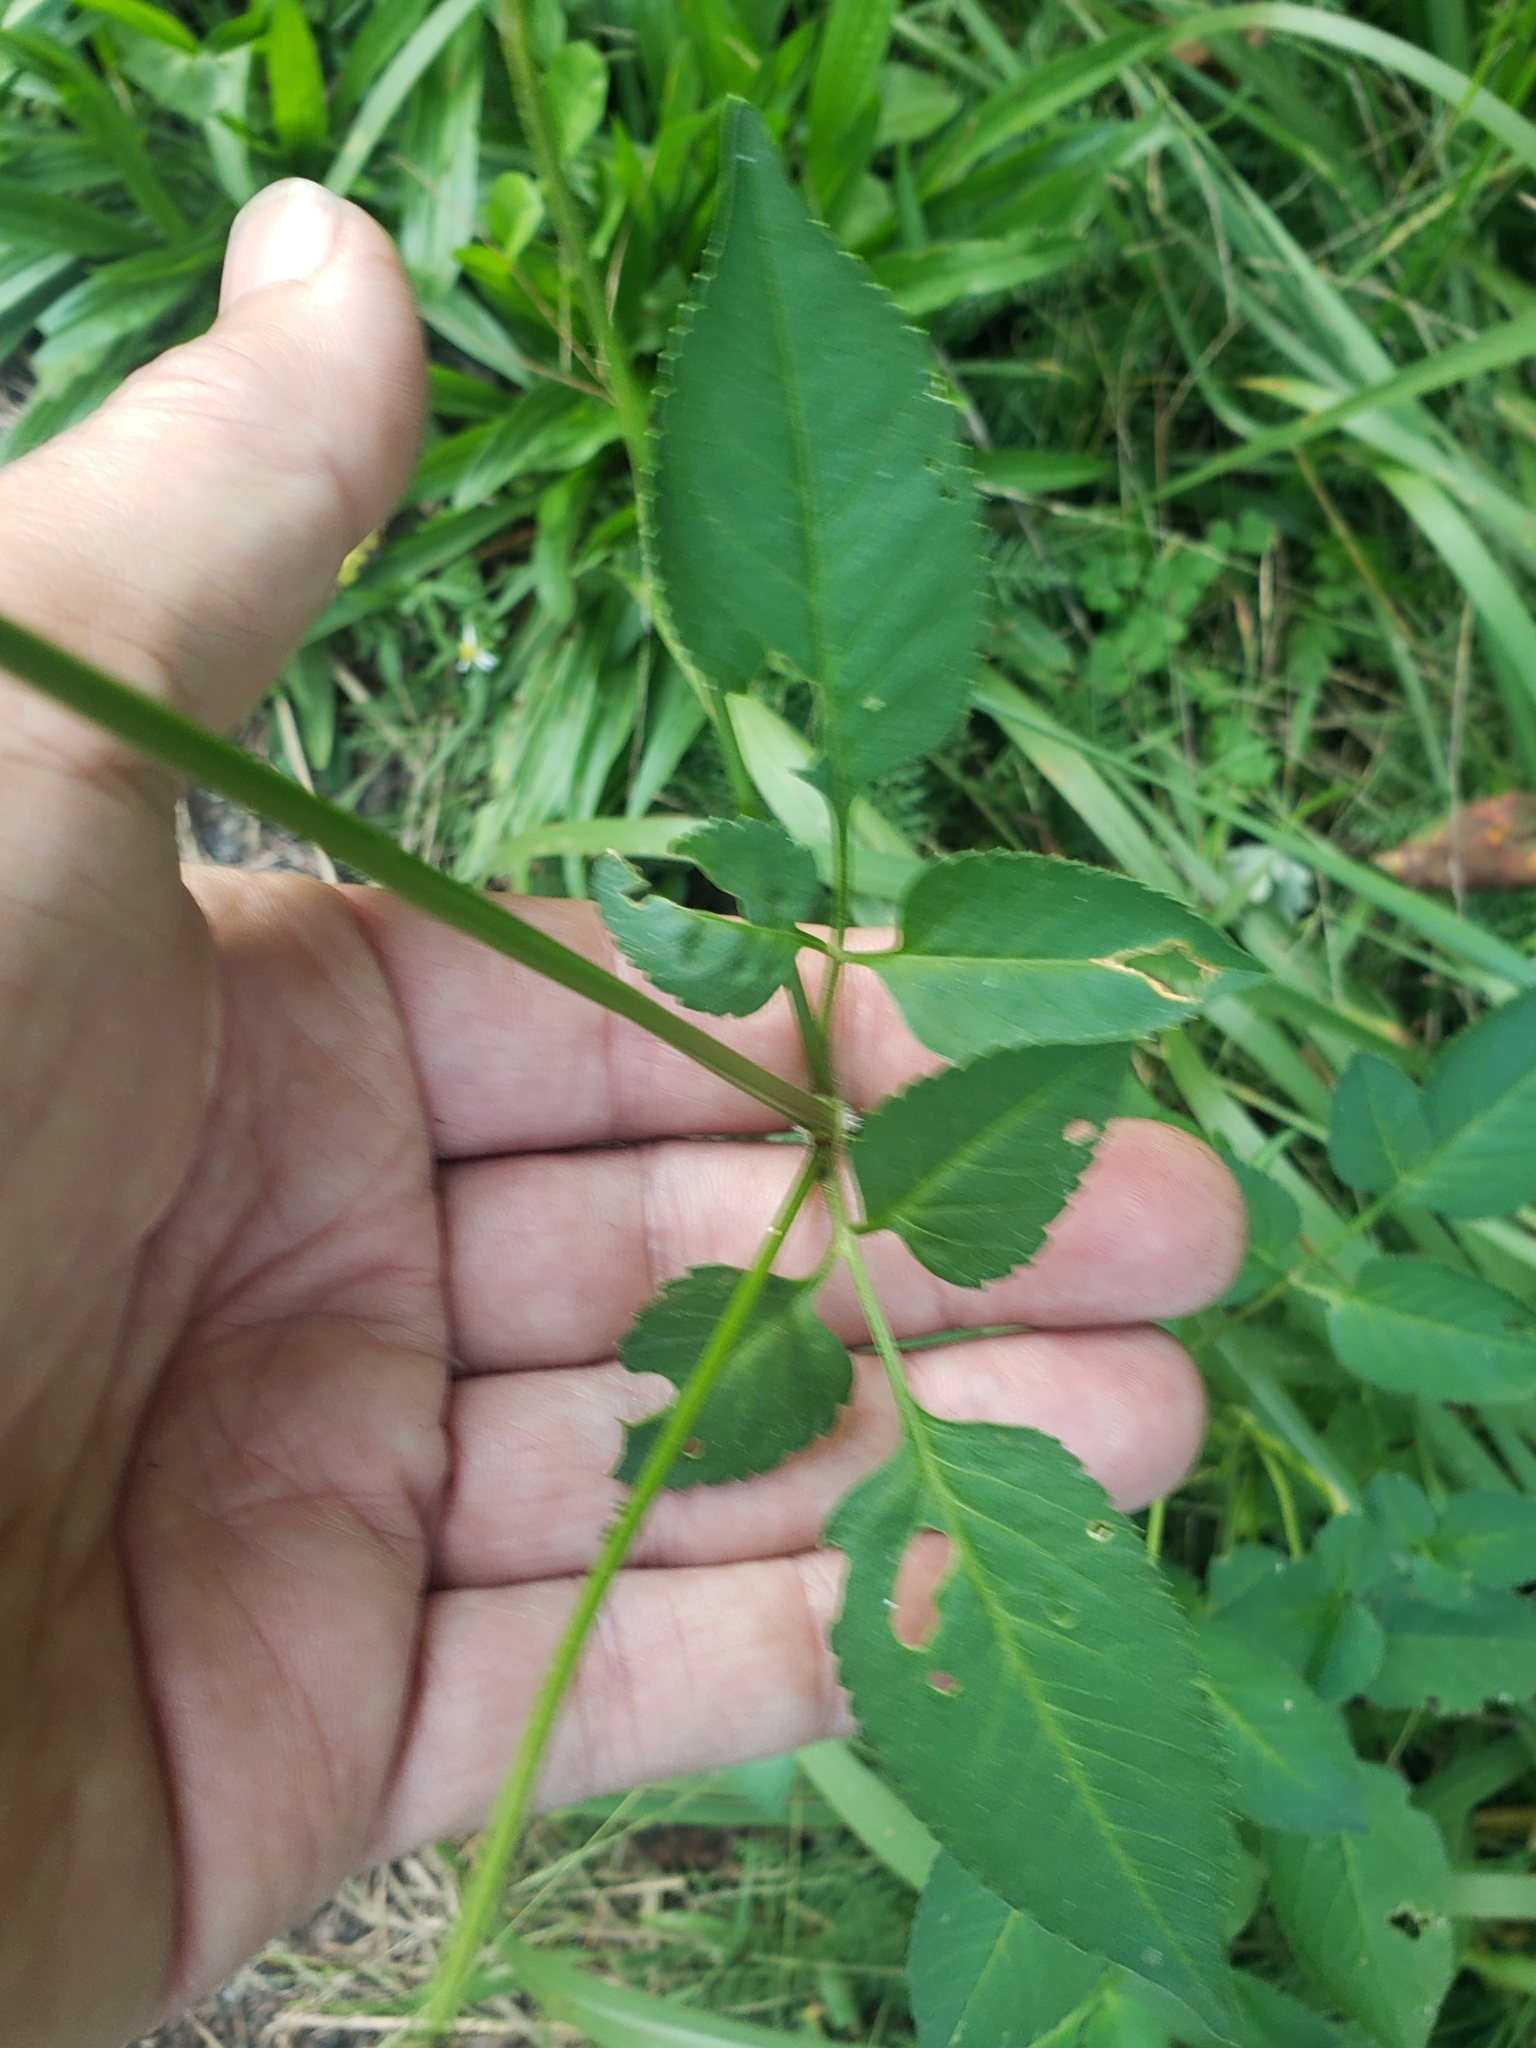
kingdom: Plantae
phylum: Tracheophyta
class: Magnoliopsida
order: Asterales
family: Asteraceae
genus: Bidens
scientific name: Bidens alba
